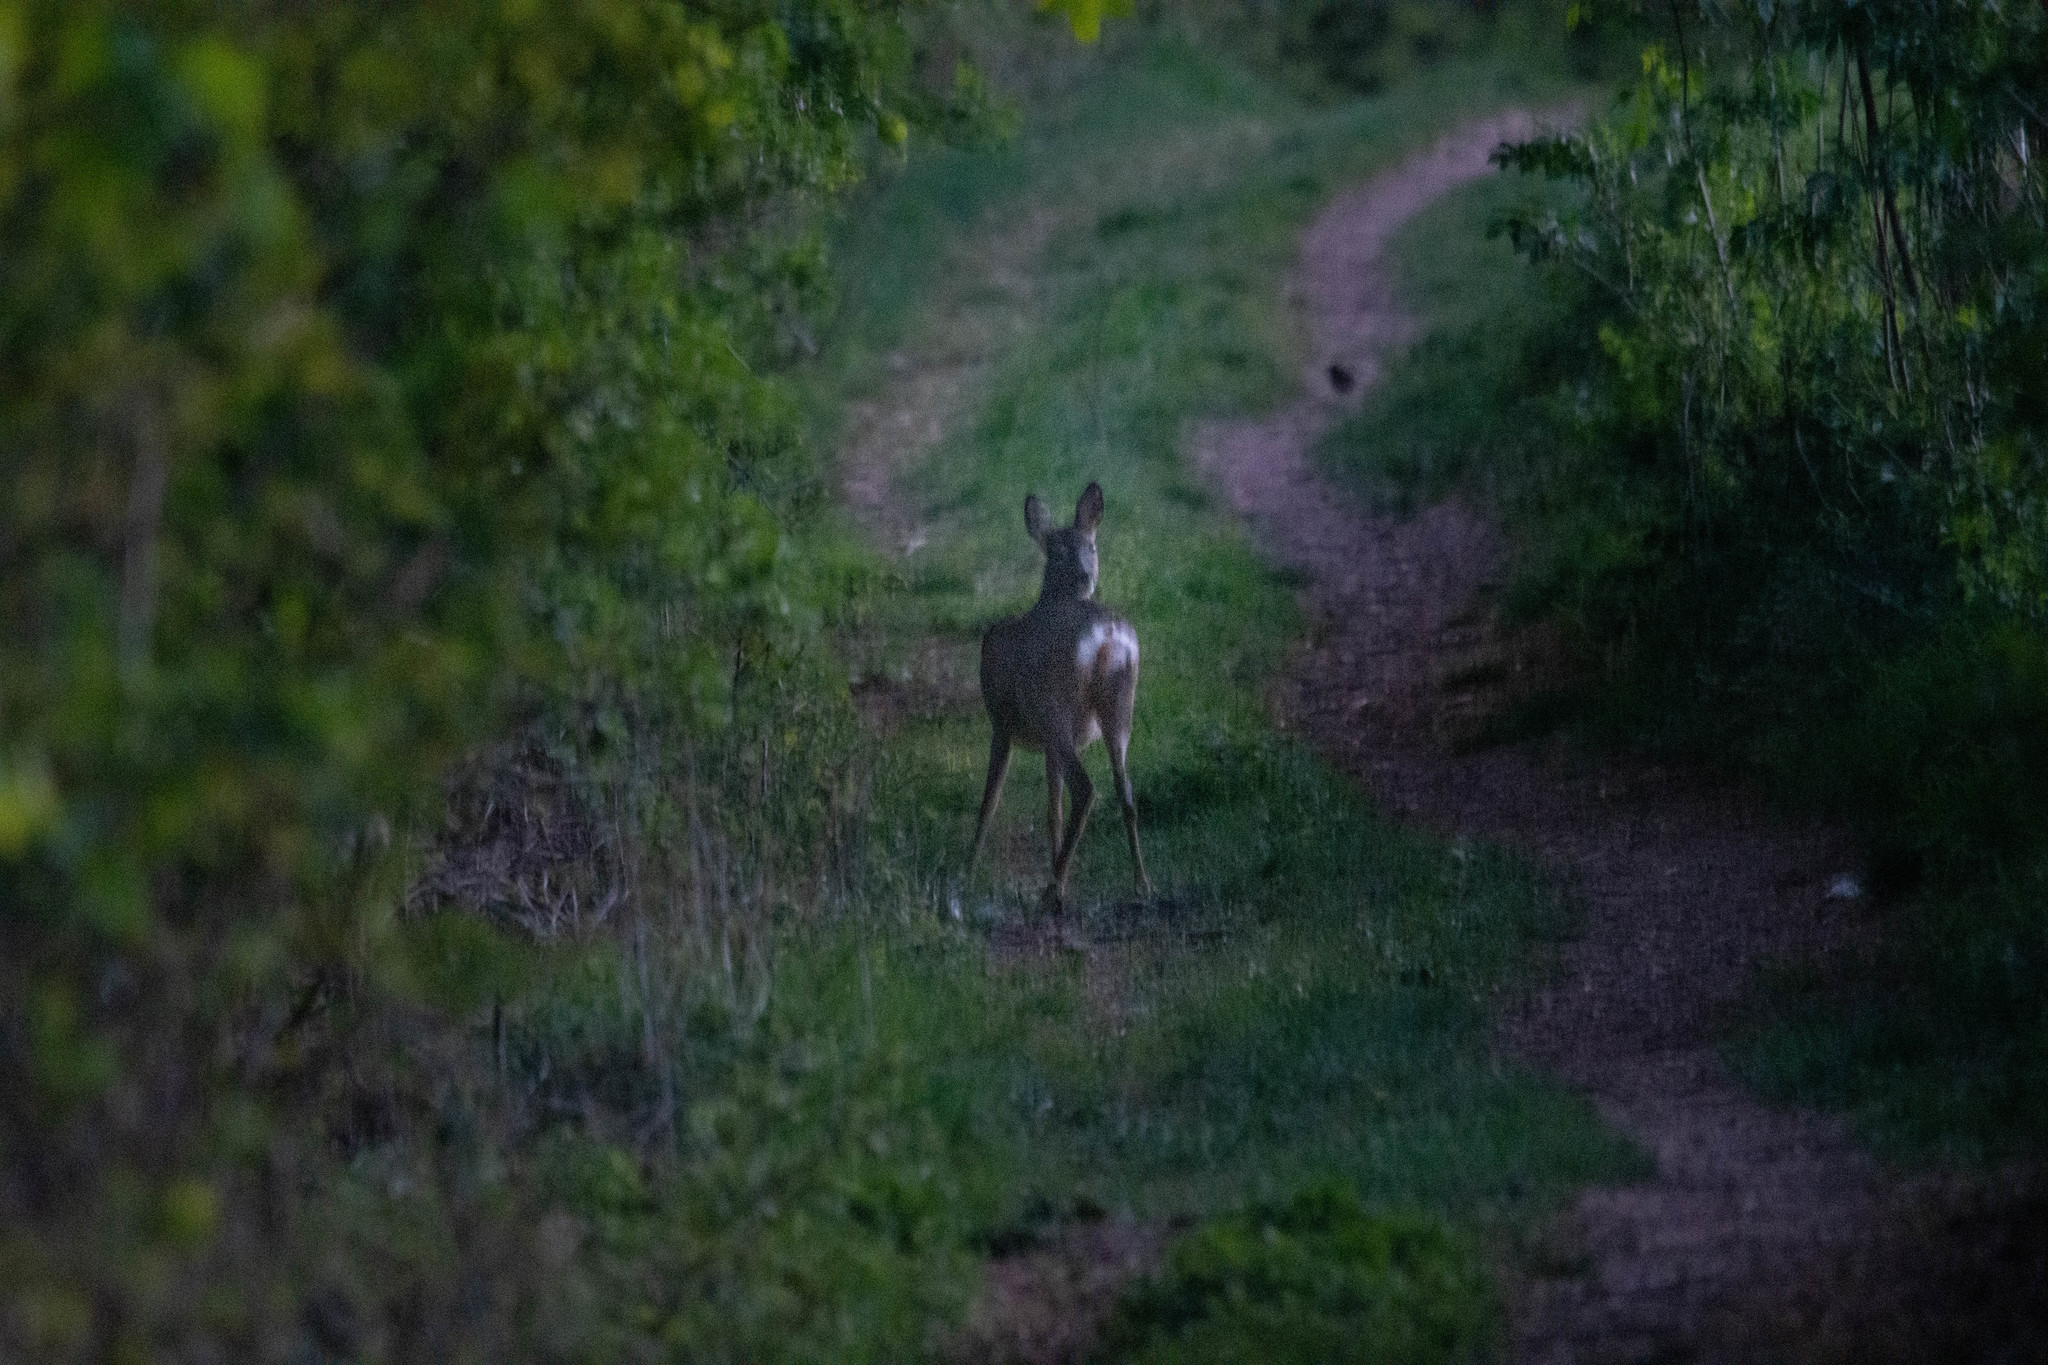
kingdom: Animalia
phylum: Chordata
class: Mammalia
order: Artiodactyla
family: Cervidae
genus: Capreolus
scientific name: Capreolus capreolus
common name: Western roe deer
